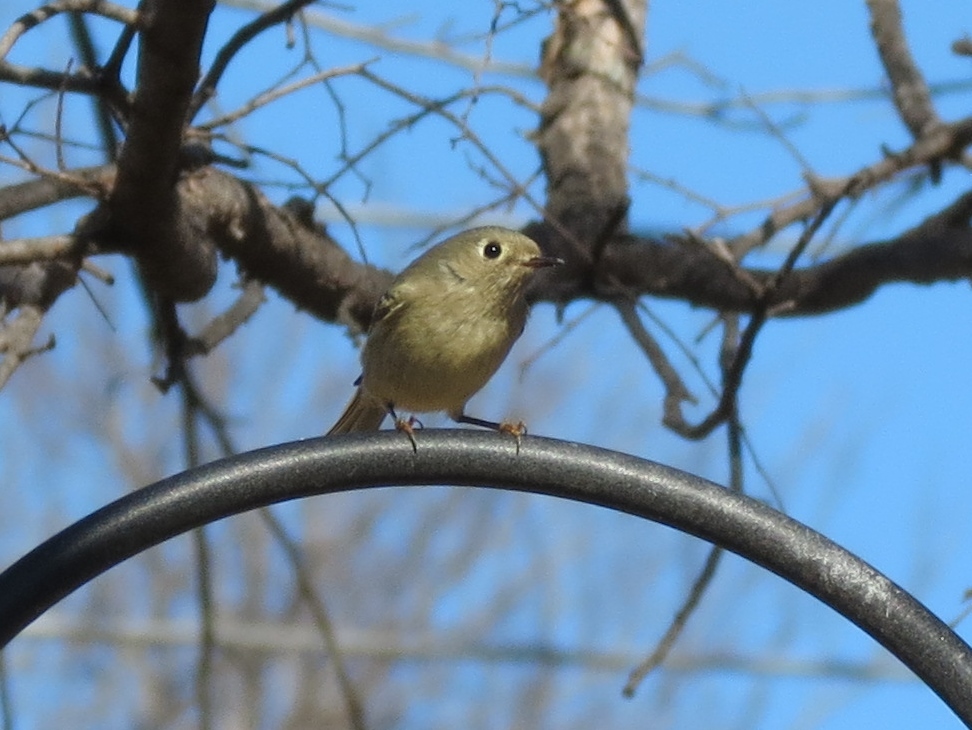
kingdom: Animalia
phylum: Chordata
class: Aves
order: Passeriformes
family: Regulidae
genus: Regulus
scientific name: Regulus calendula
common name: Ruby-crowned kinglet
